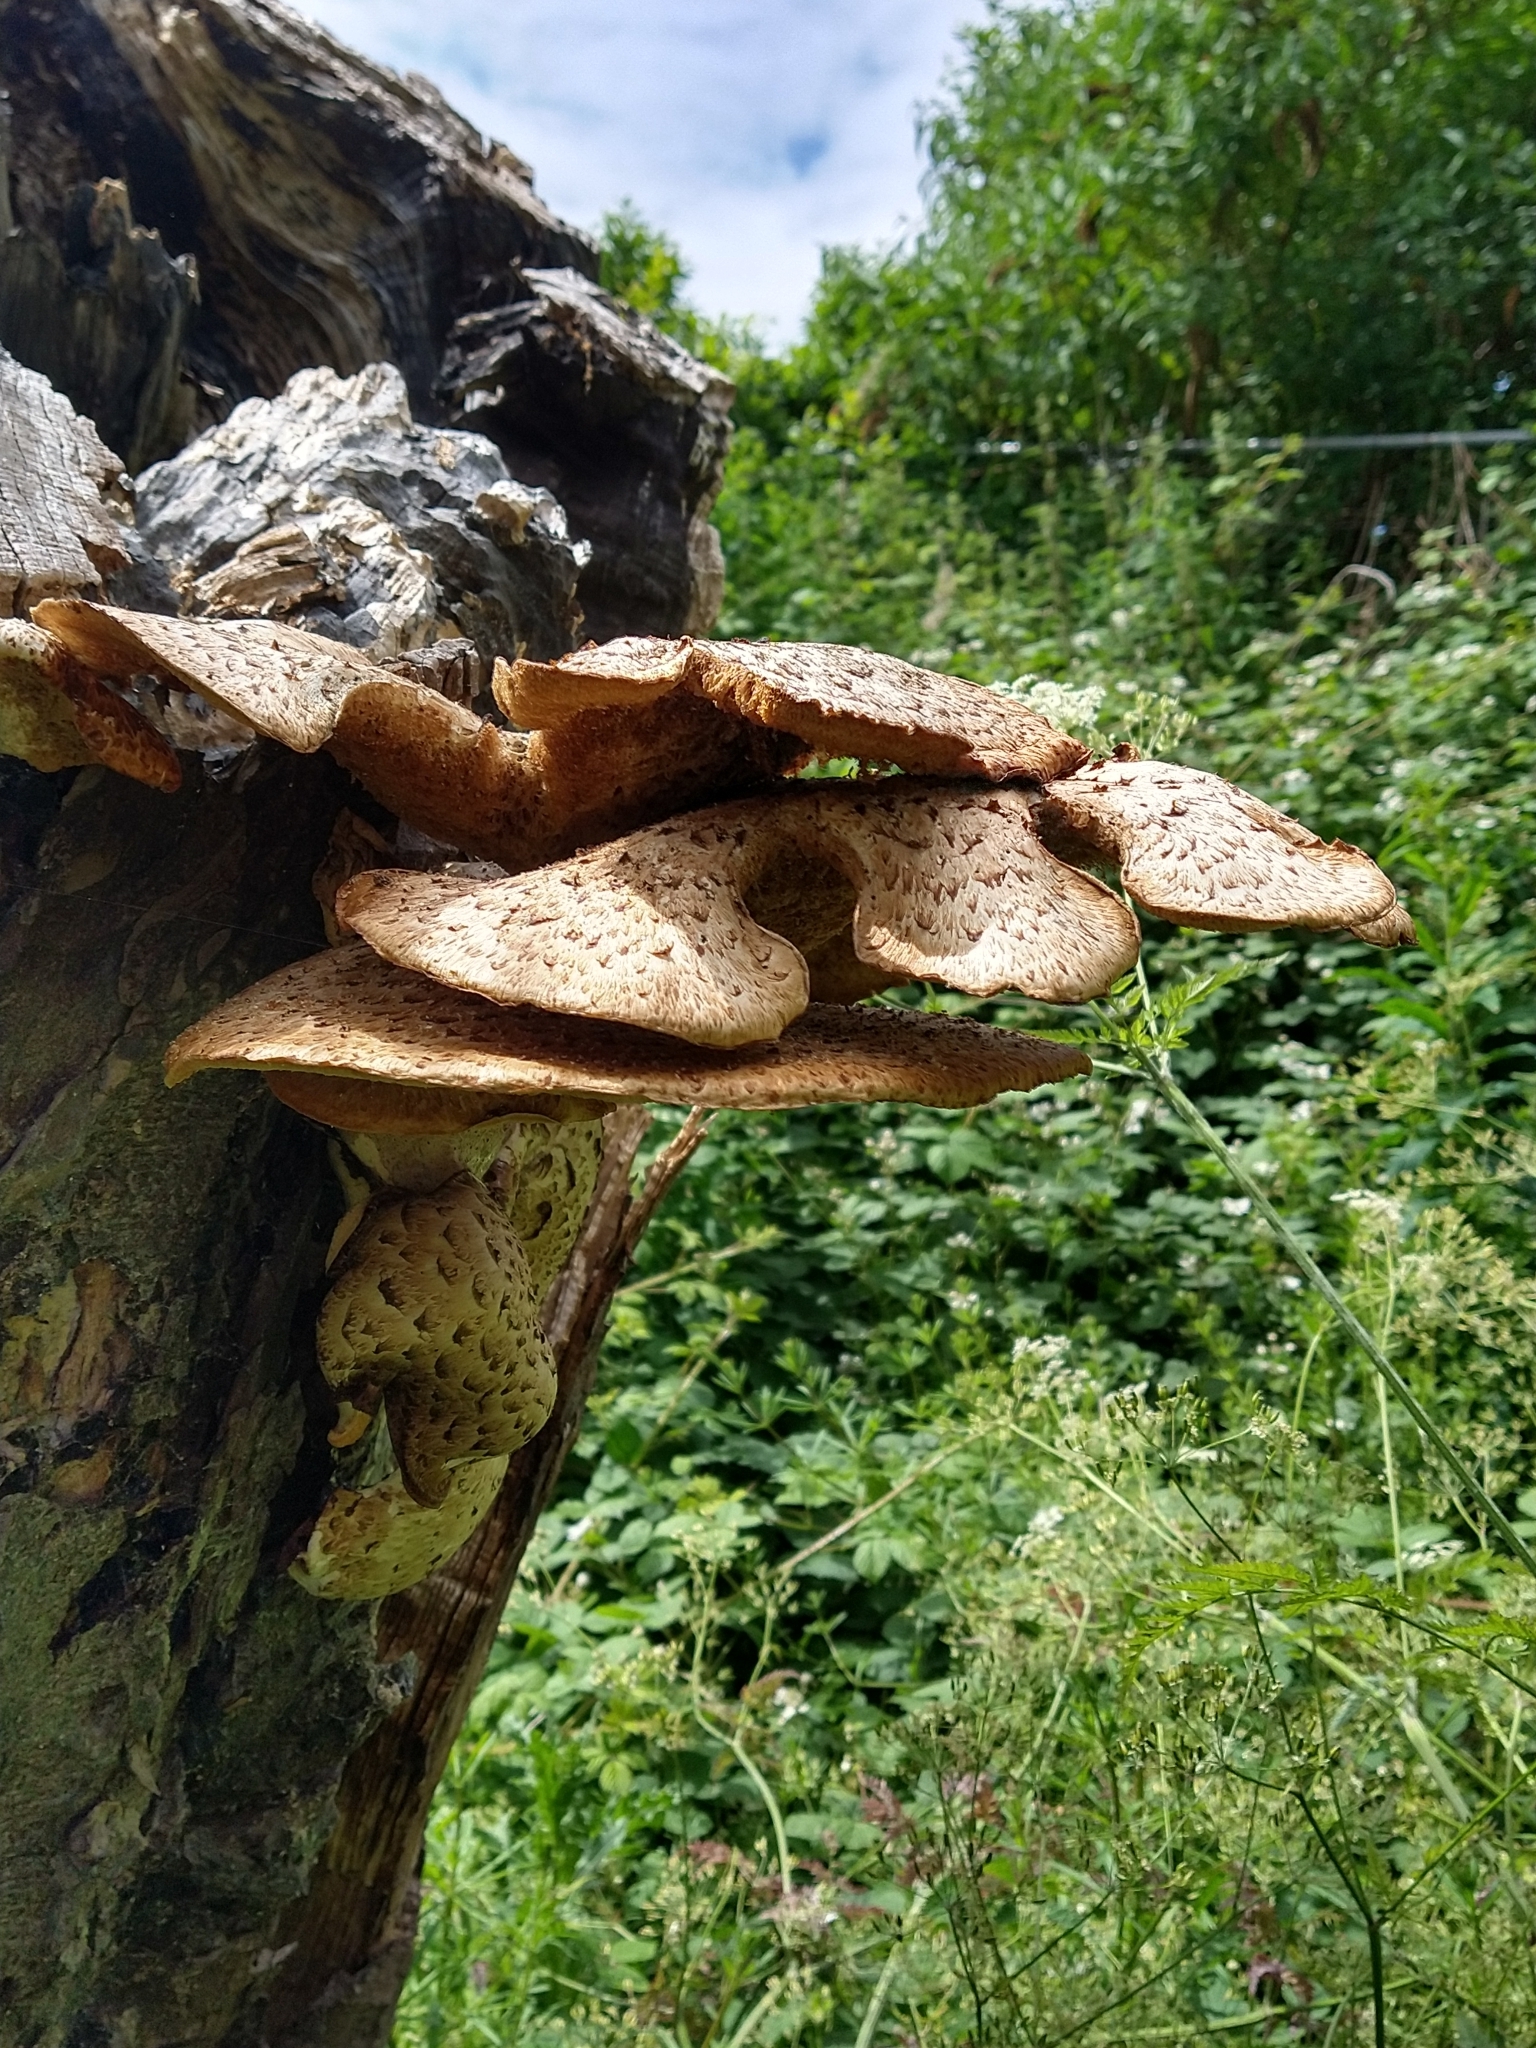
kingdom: Fungi
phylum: Basidiomycota
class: Agaricomycetes
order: Polyporales
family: Polyporaceae
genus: Cerioporus
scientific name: Cerioporus squamosus
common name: Dryad's saddle
